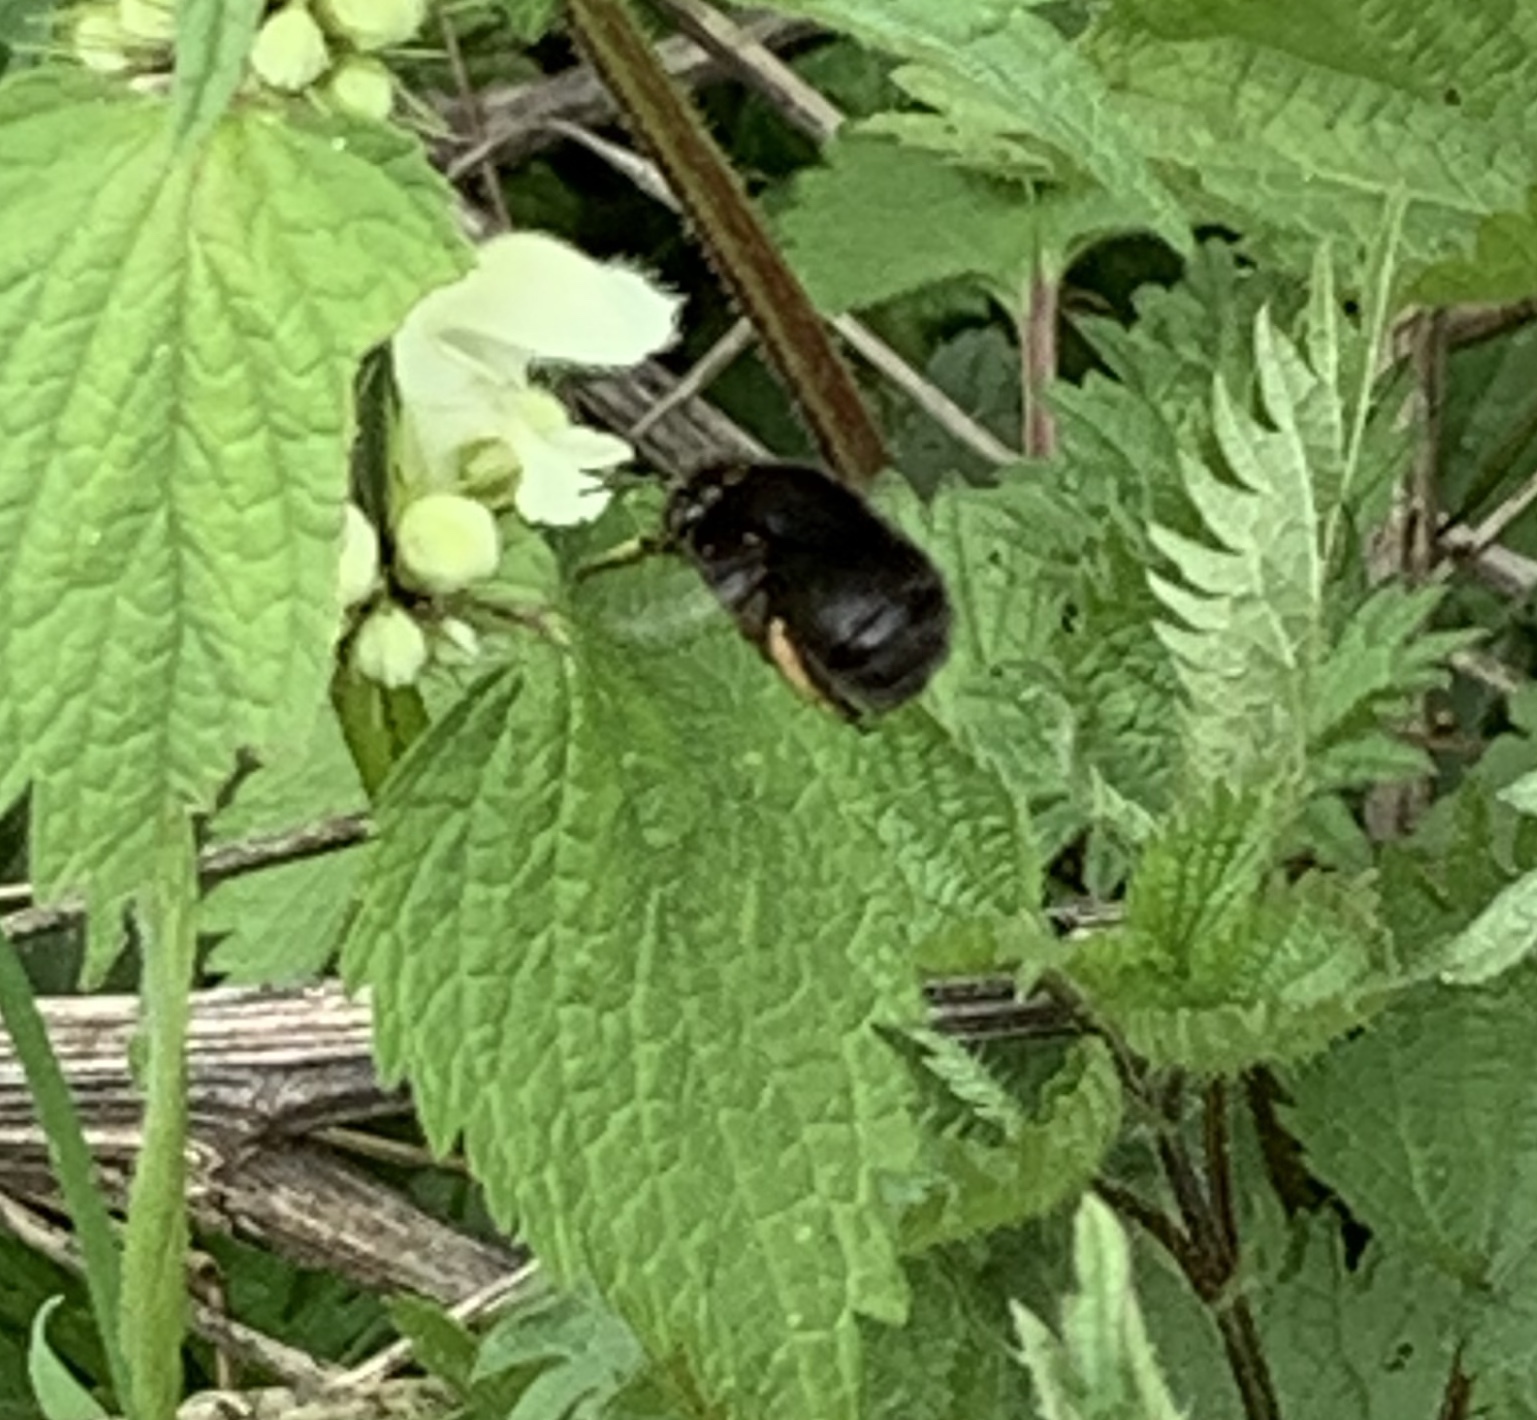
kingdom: Animalia
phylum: Arthropoda
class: Insecta
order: Hymenoptera
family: Apidae
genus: Anthophora
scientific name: Anthophora plumipes
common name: Hairy-footed flower bee
